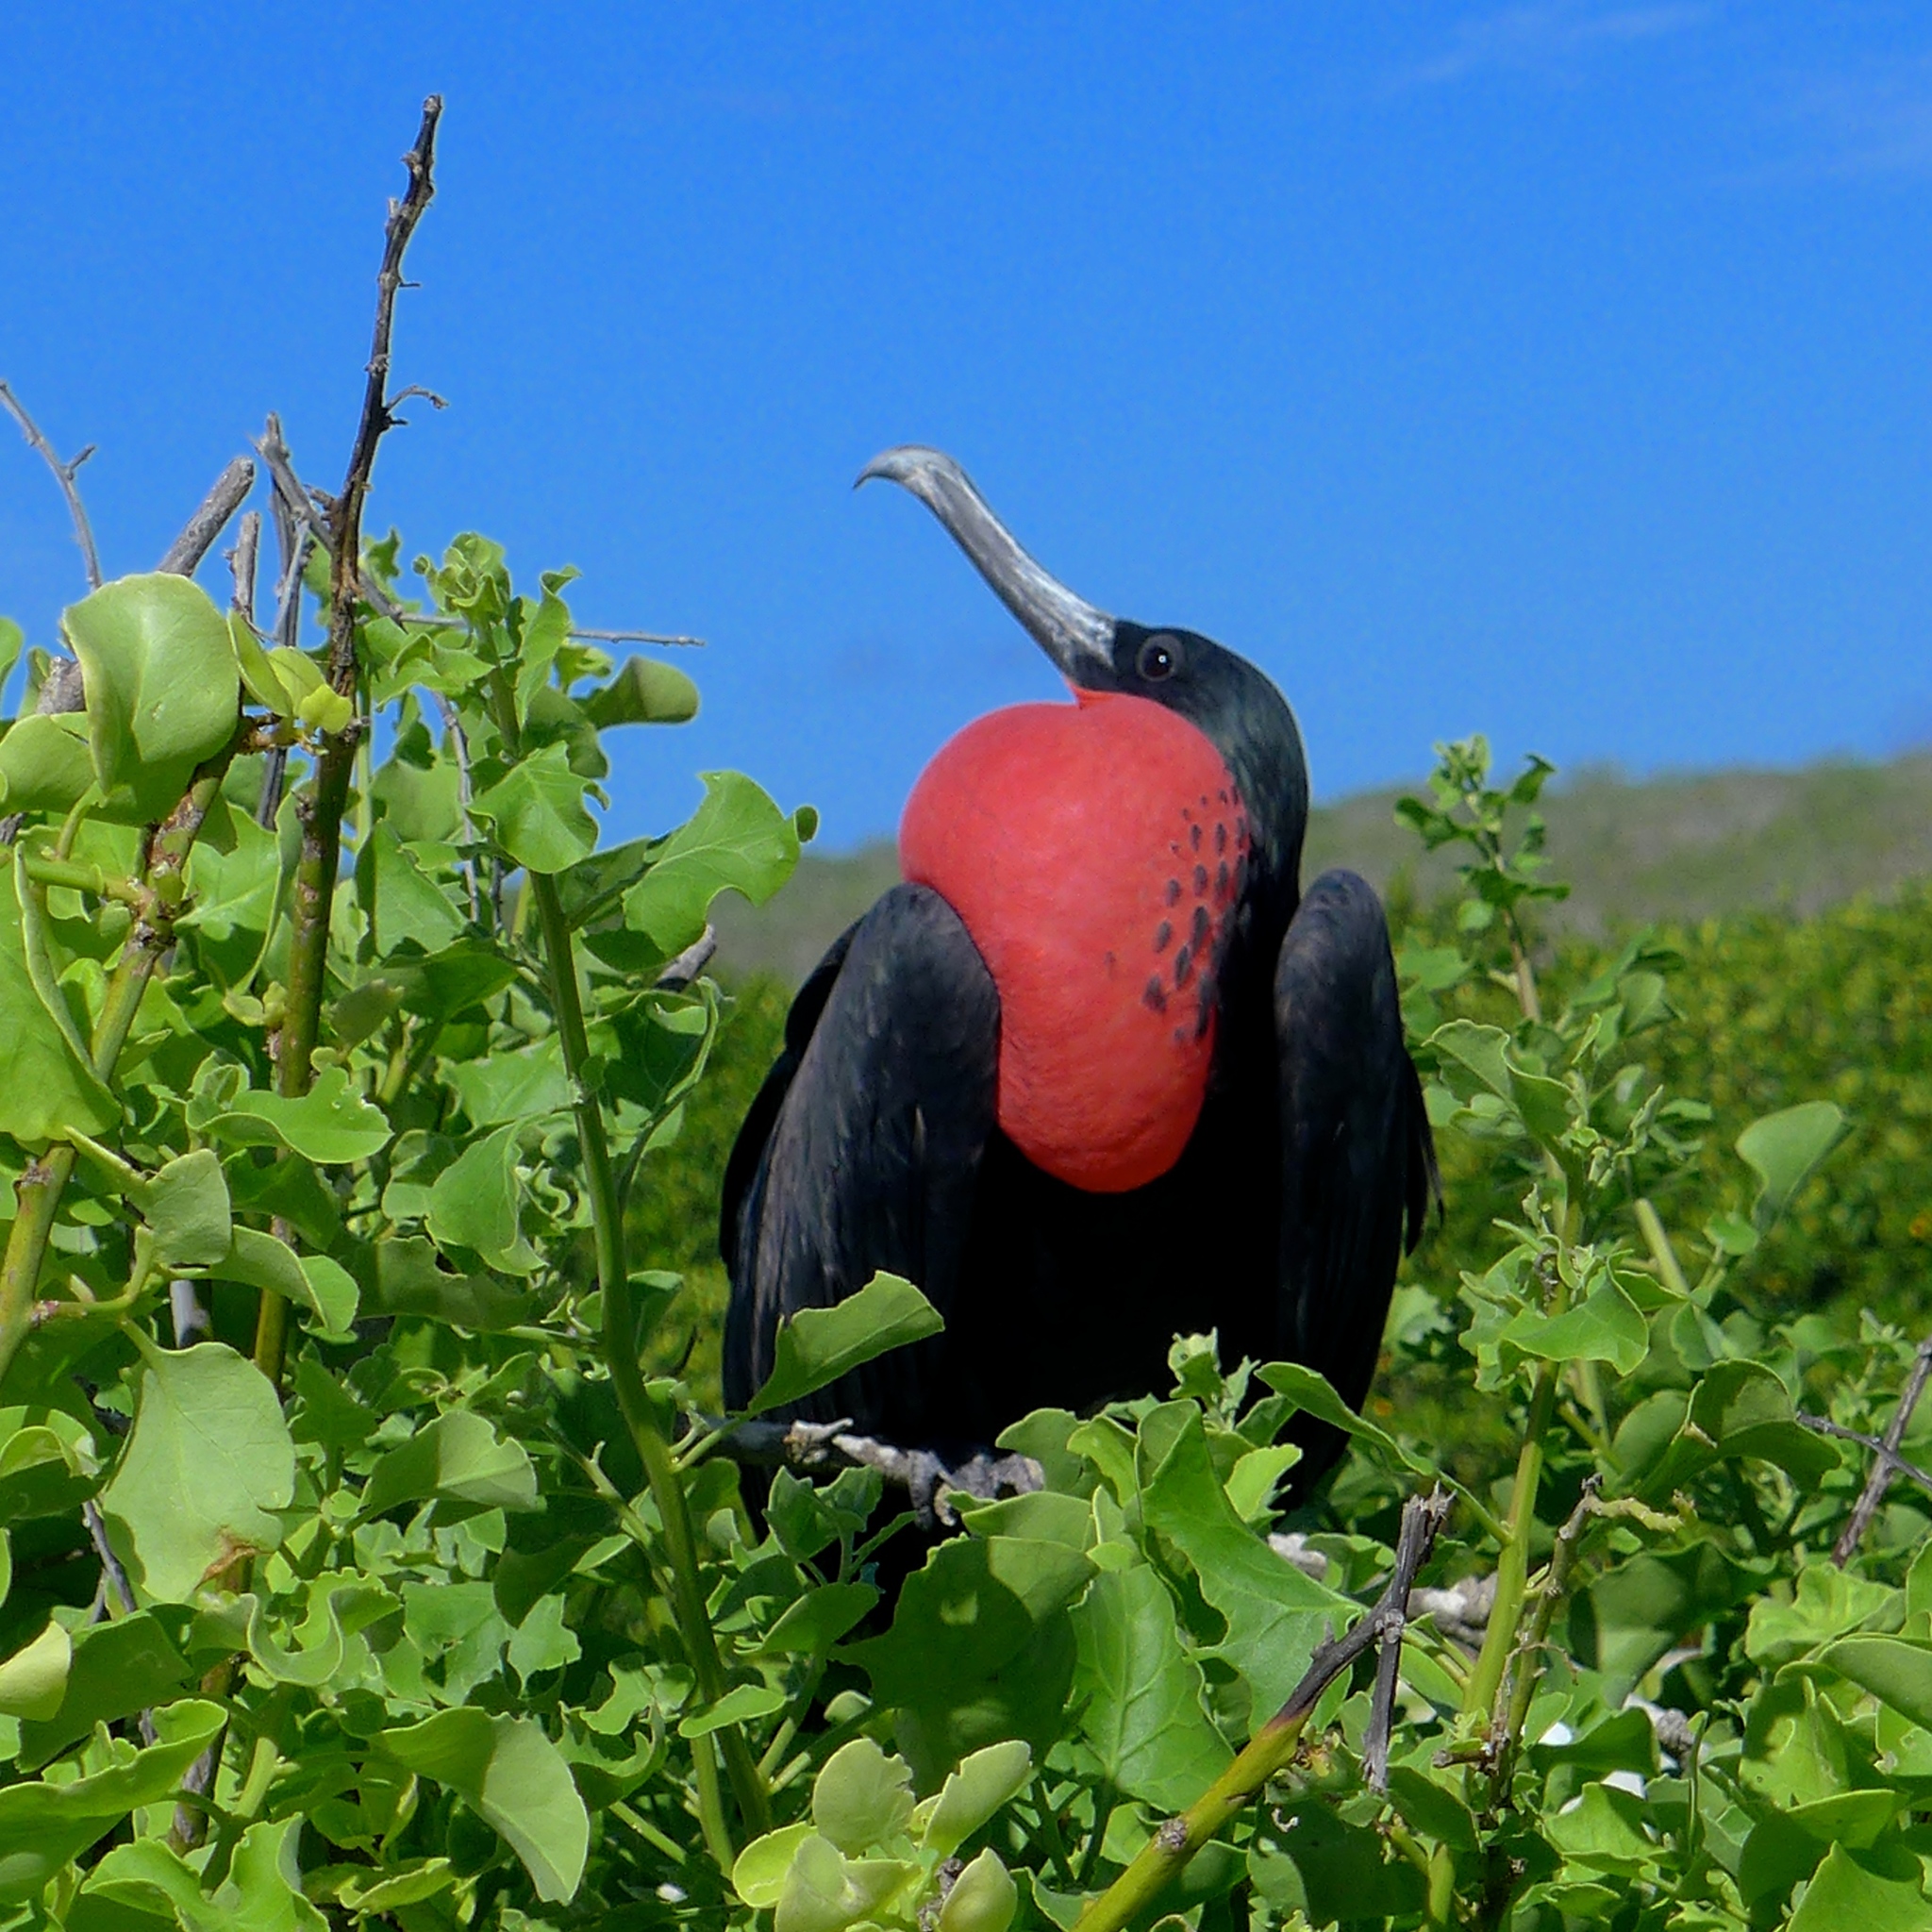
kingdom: Animalia
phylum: Chordata
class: Aves
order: Suliformes
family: Fregatidae
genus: Fregata
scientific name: Fregata minor
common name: Great frigatebird
